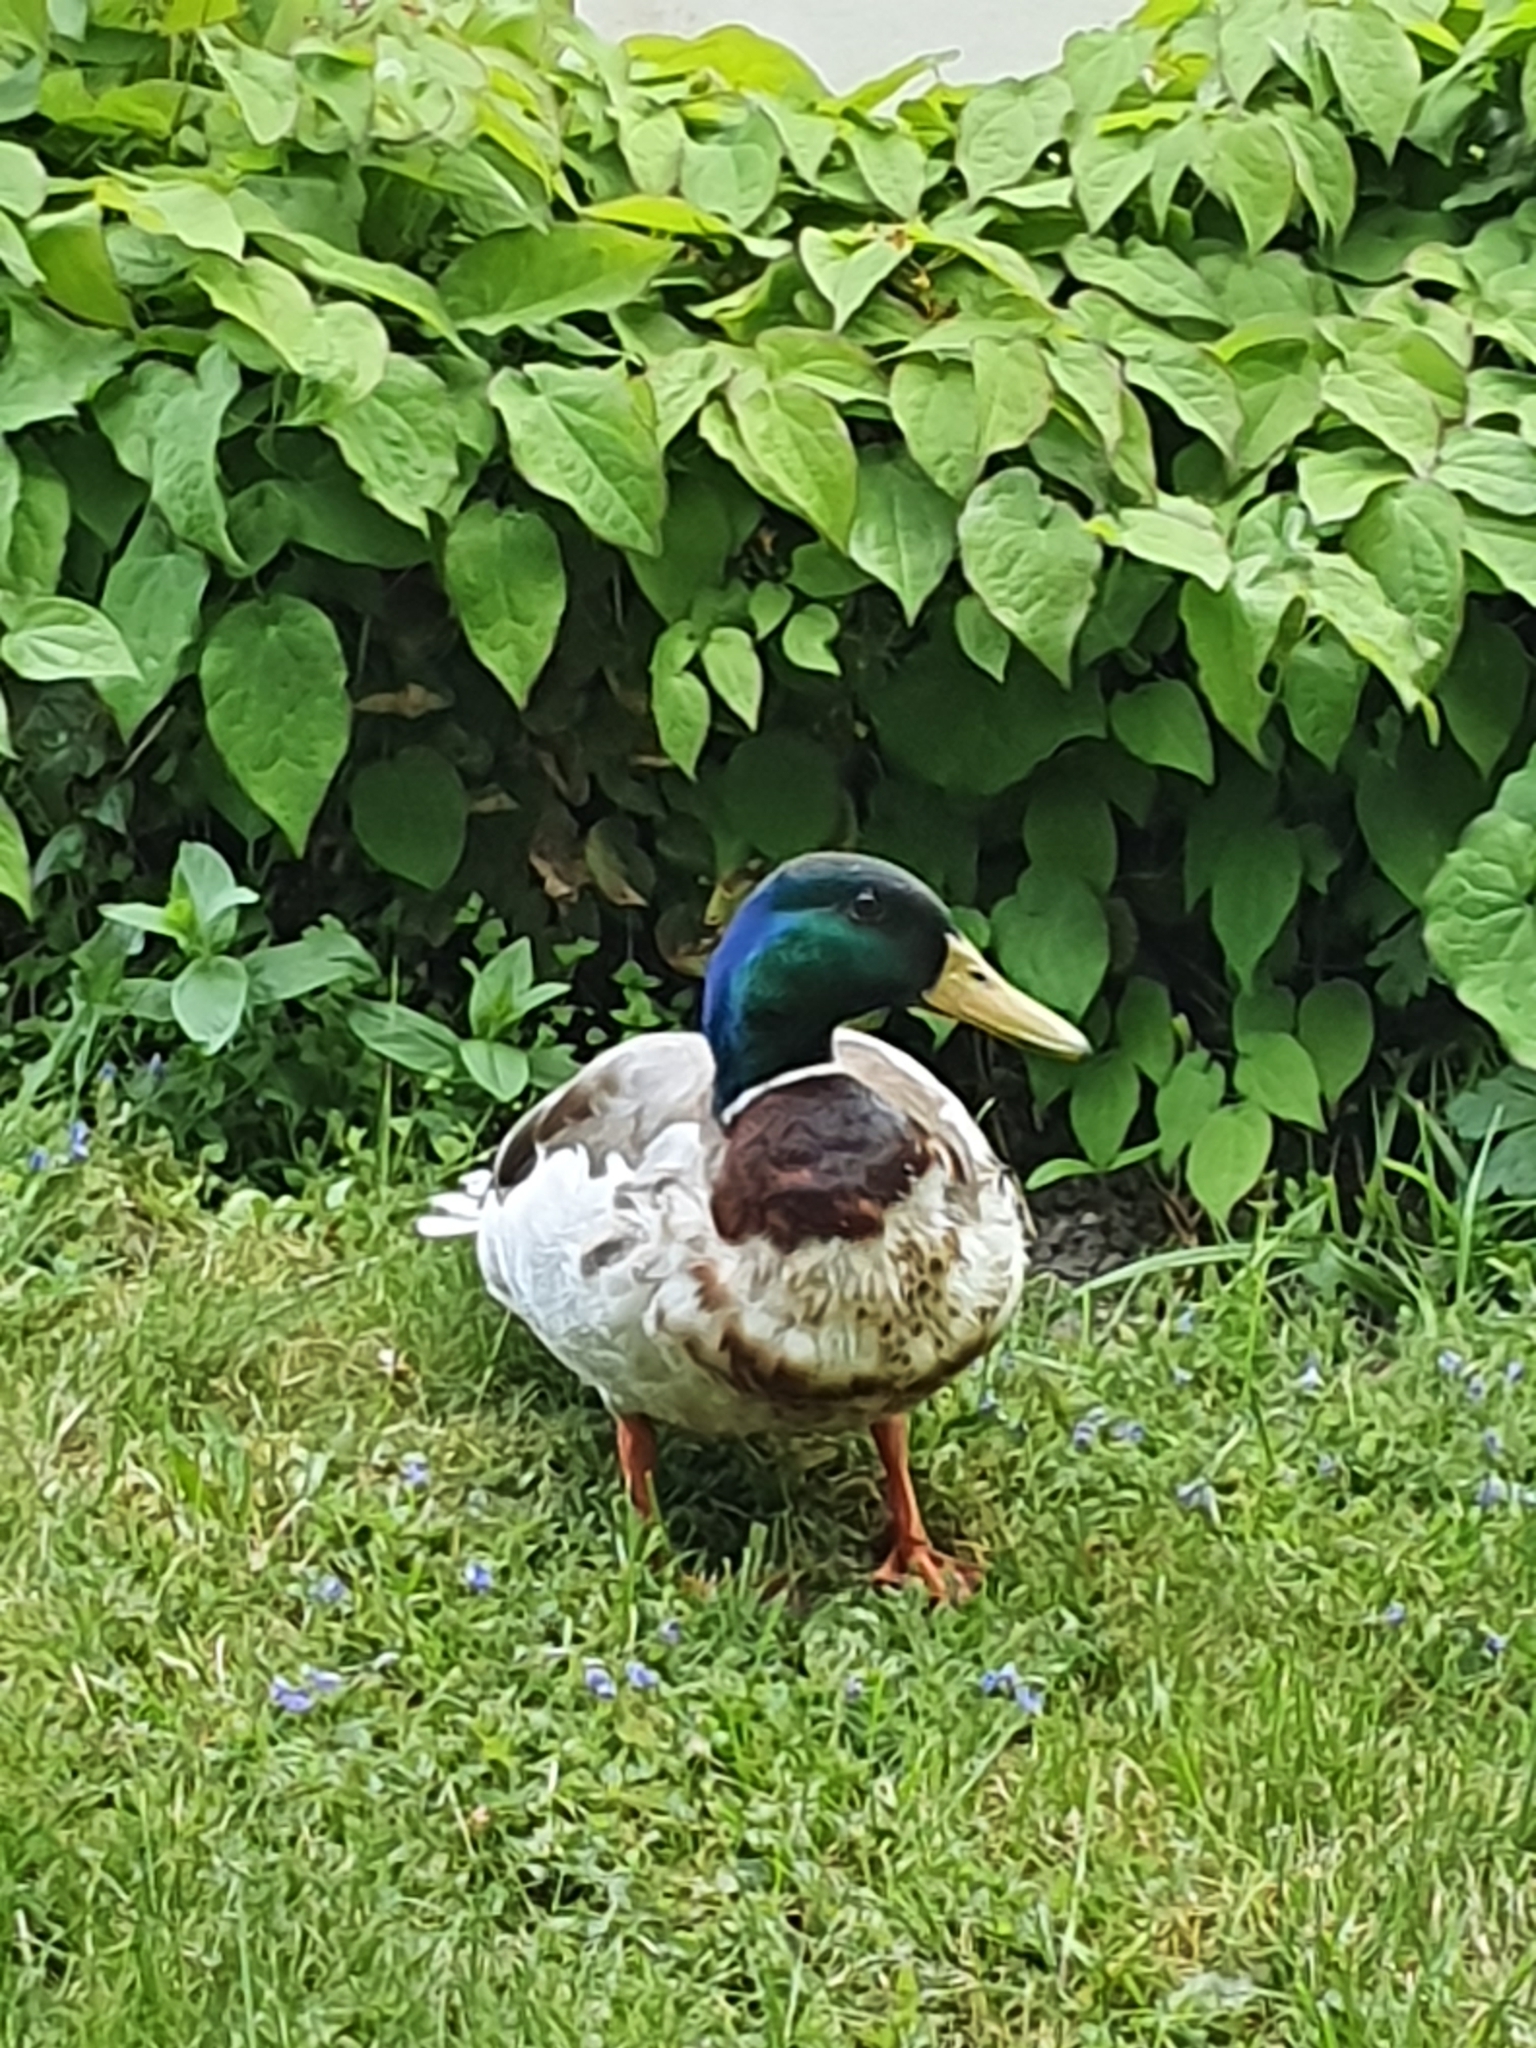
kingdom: Animalia
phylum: Chordata
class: Aves
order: Anseriformes
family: Anatidae
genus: Anas
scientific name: Anas platyrhynchos
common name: Mallard
